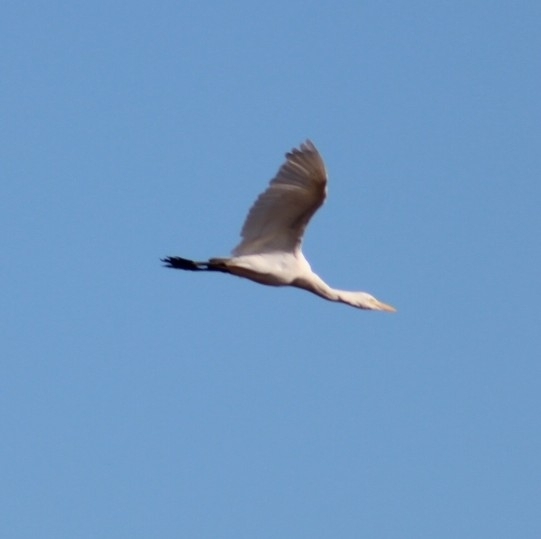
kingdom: Animalia
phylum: Chordata
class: Aves
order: Pelecaniformes
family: Ardeidae
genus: Bubulcus
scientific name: Bubulcus ibis
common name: Cattle egret
